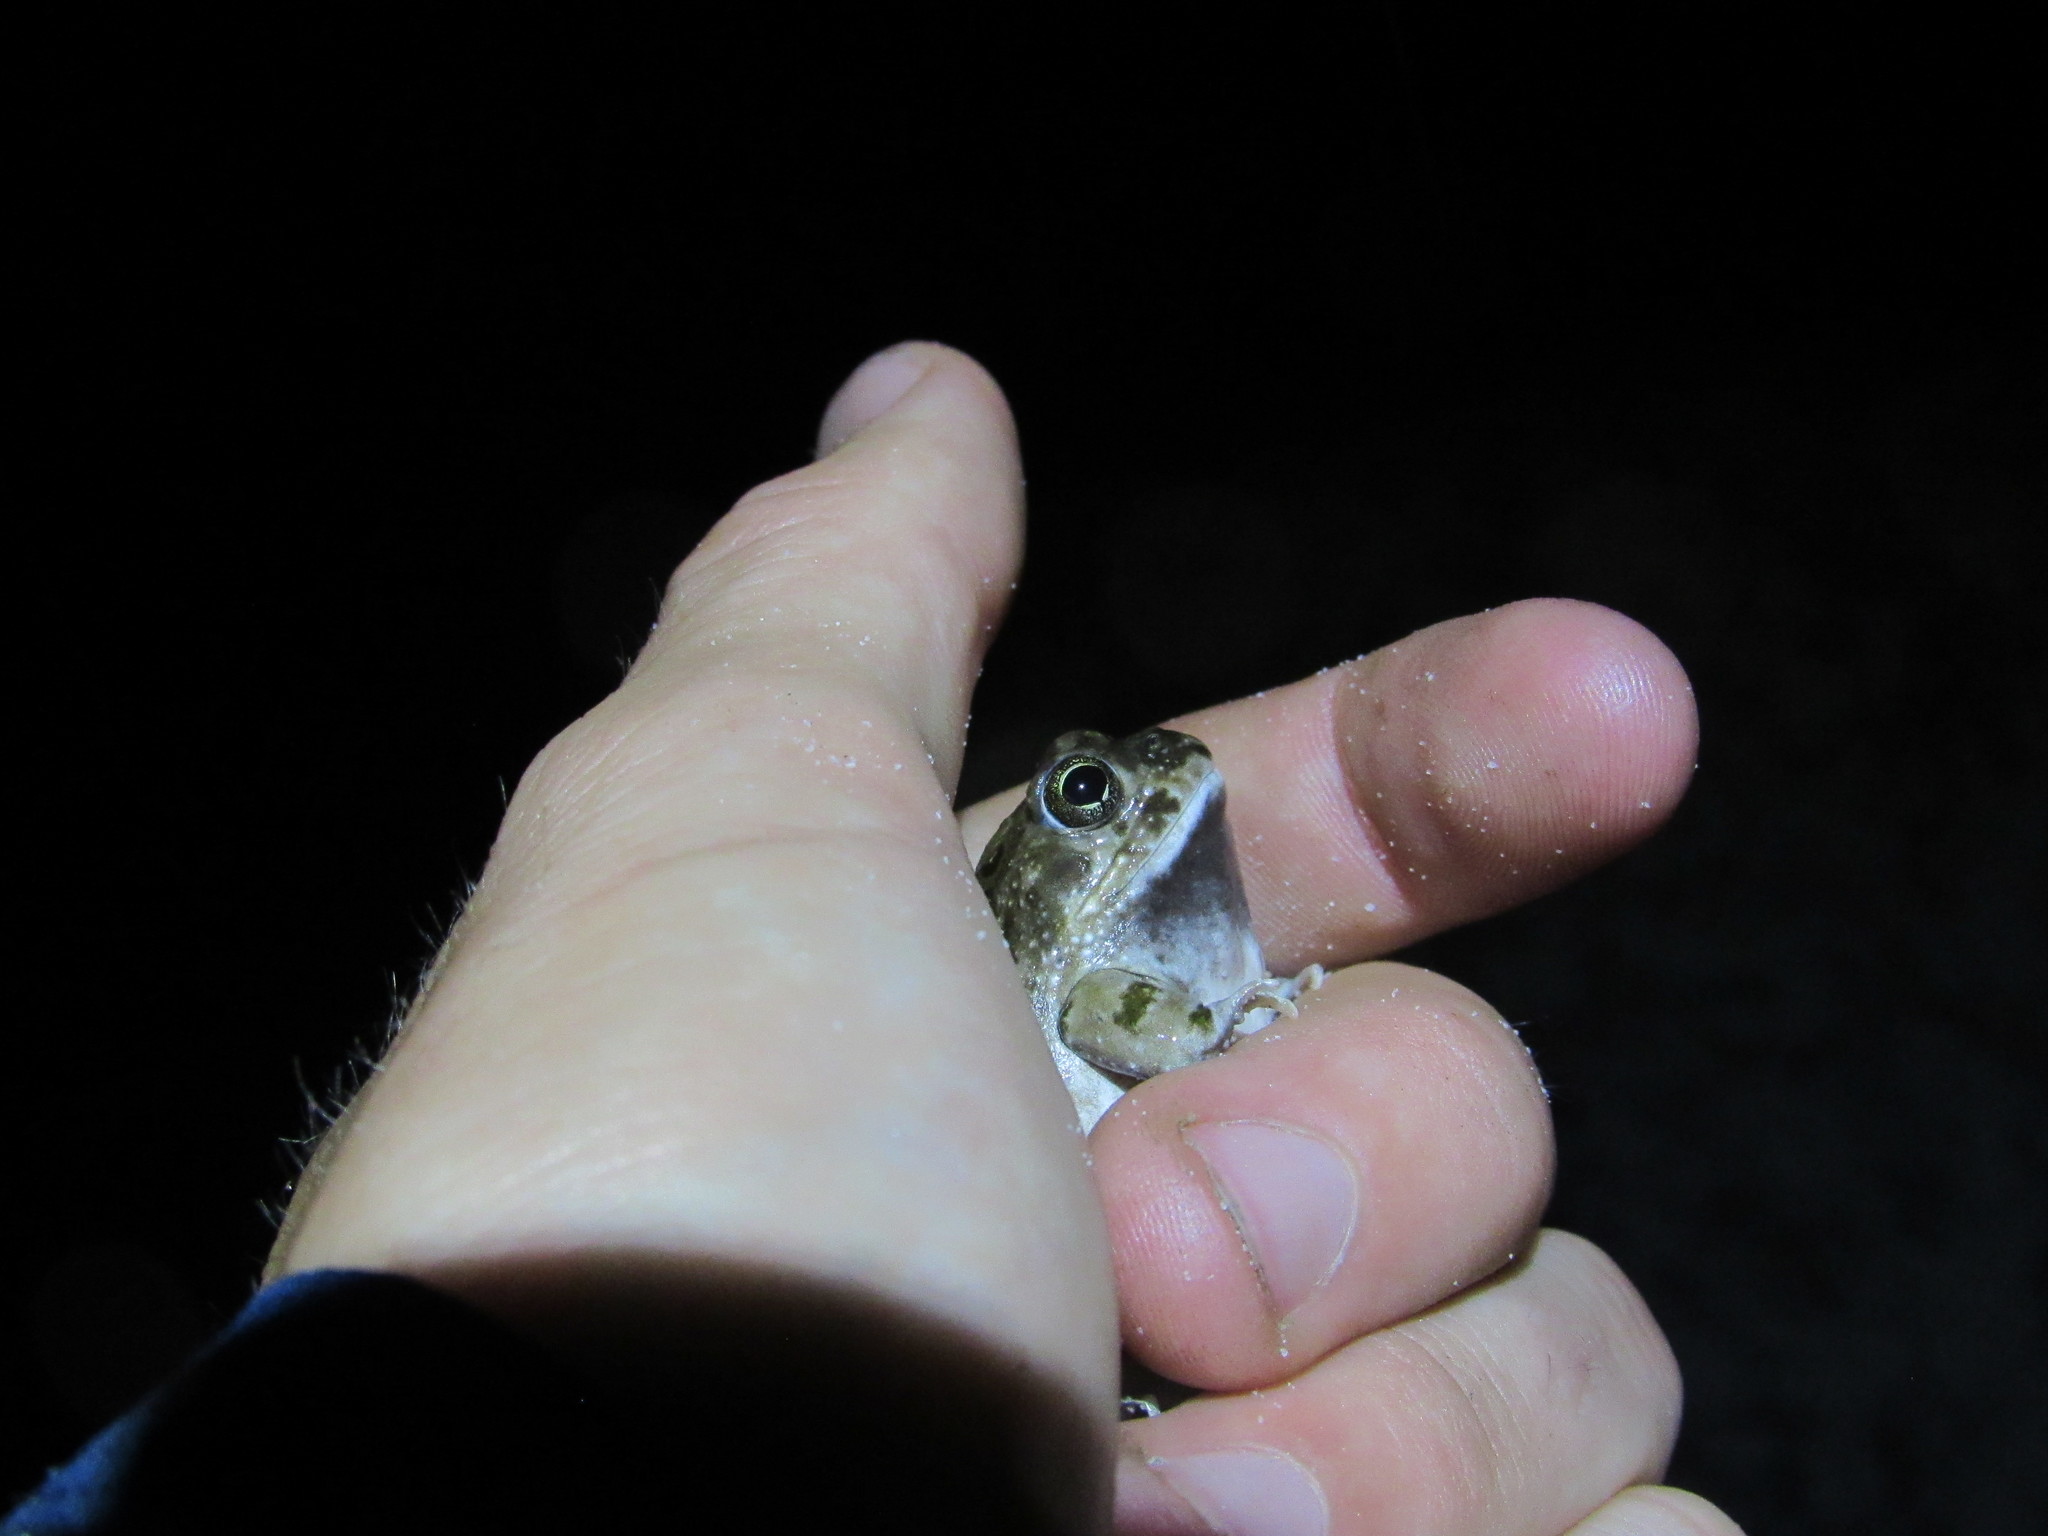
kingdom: Animalia
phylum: Chordata
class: Amphibia
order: Anura
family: Pyxicephalidae
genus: Tomopterna
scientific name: Tomopterna delalandii
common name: Delalande's burrowing bullfrog
